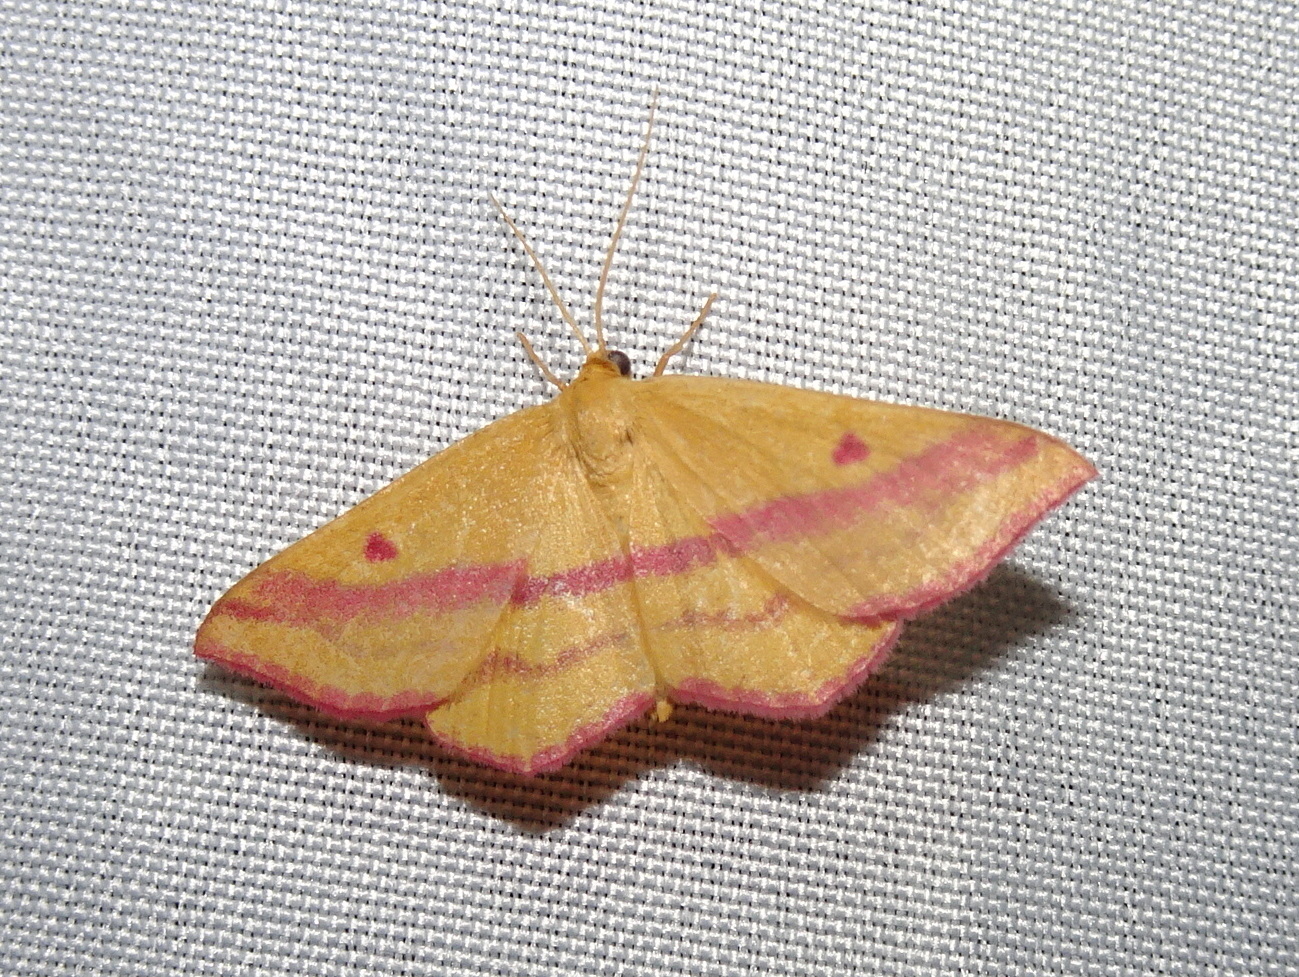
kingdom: Animalia
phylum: Arthropoda
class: Insecta
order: Lepidoptera
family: Geometridae
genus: Haematopis
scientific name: Haematopis grataria
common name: Chickweed geometer
